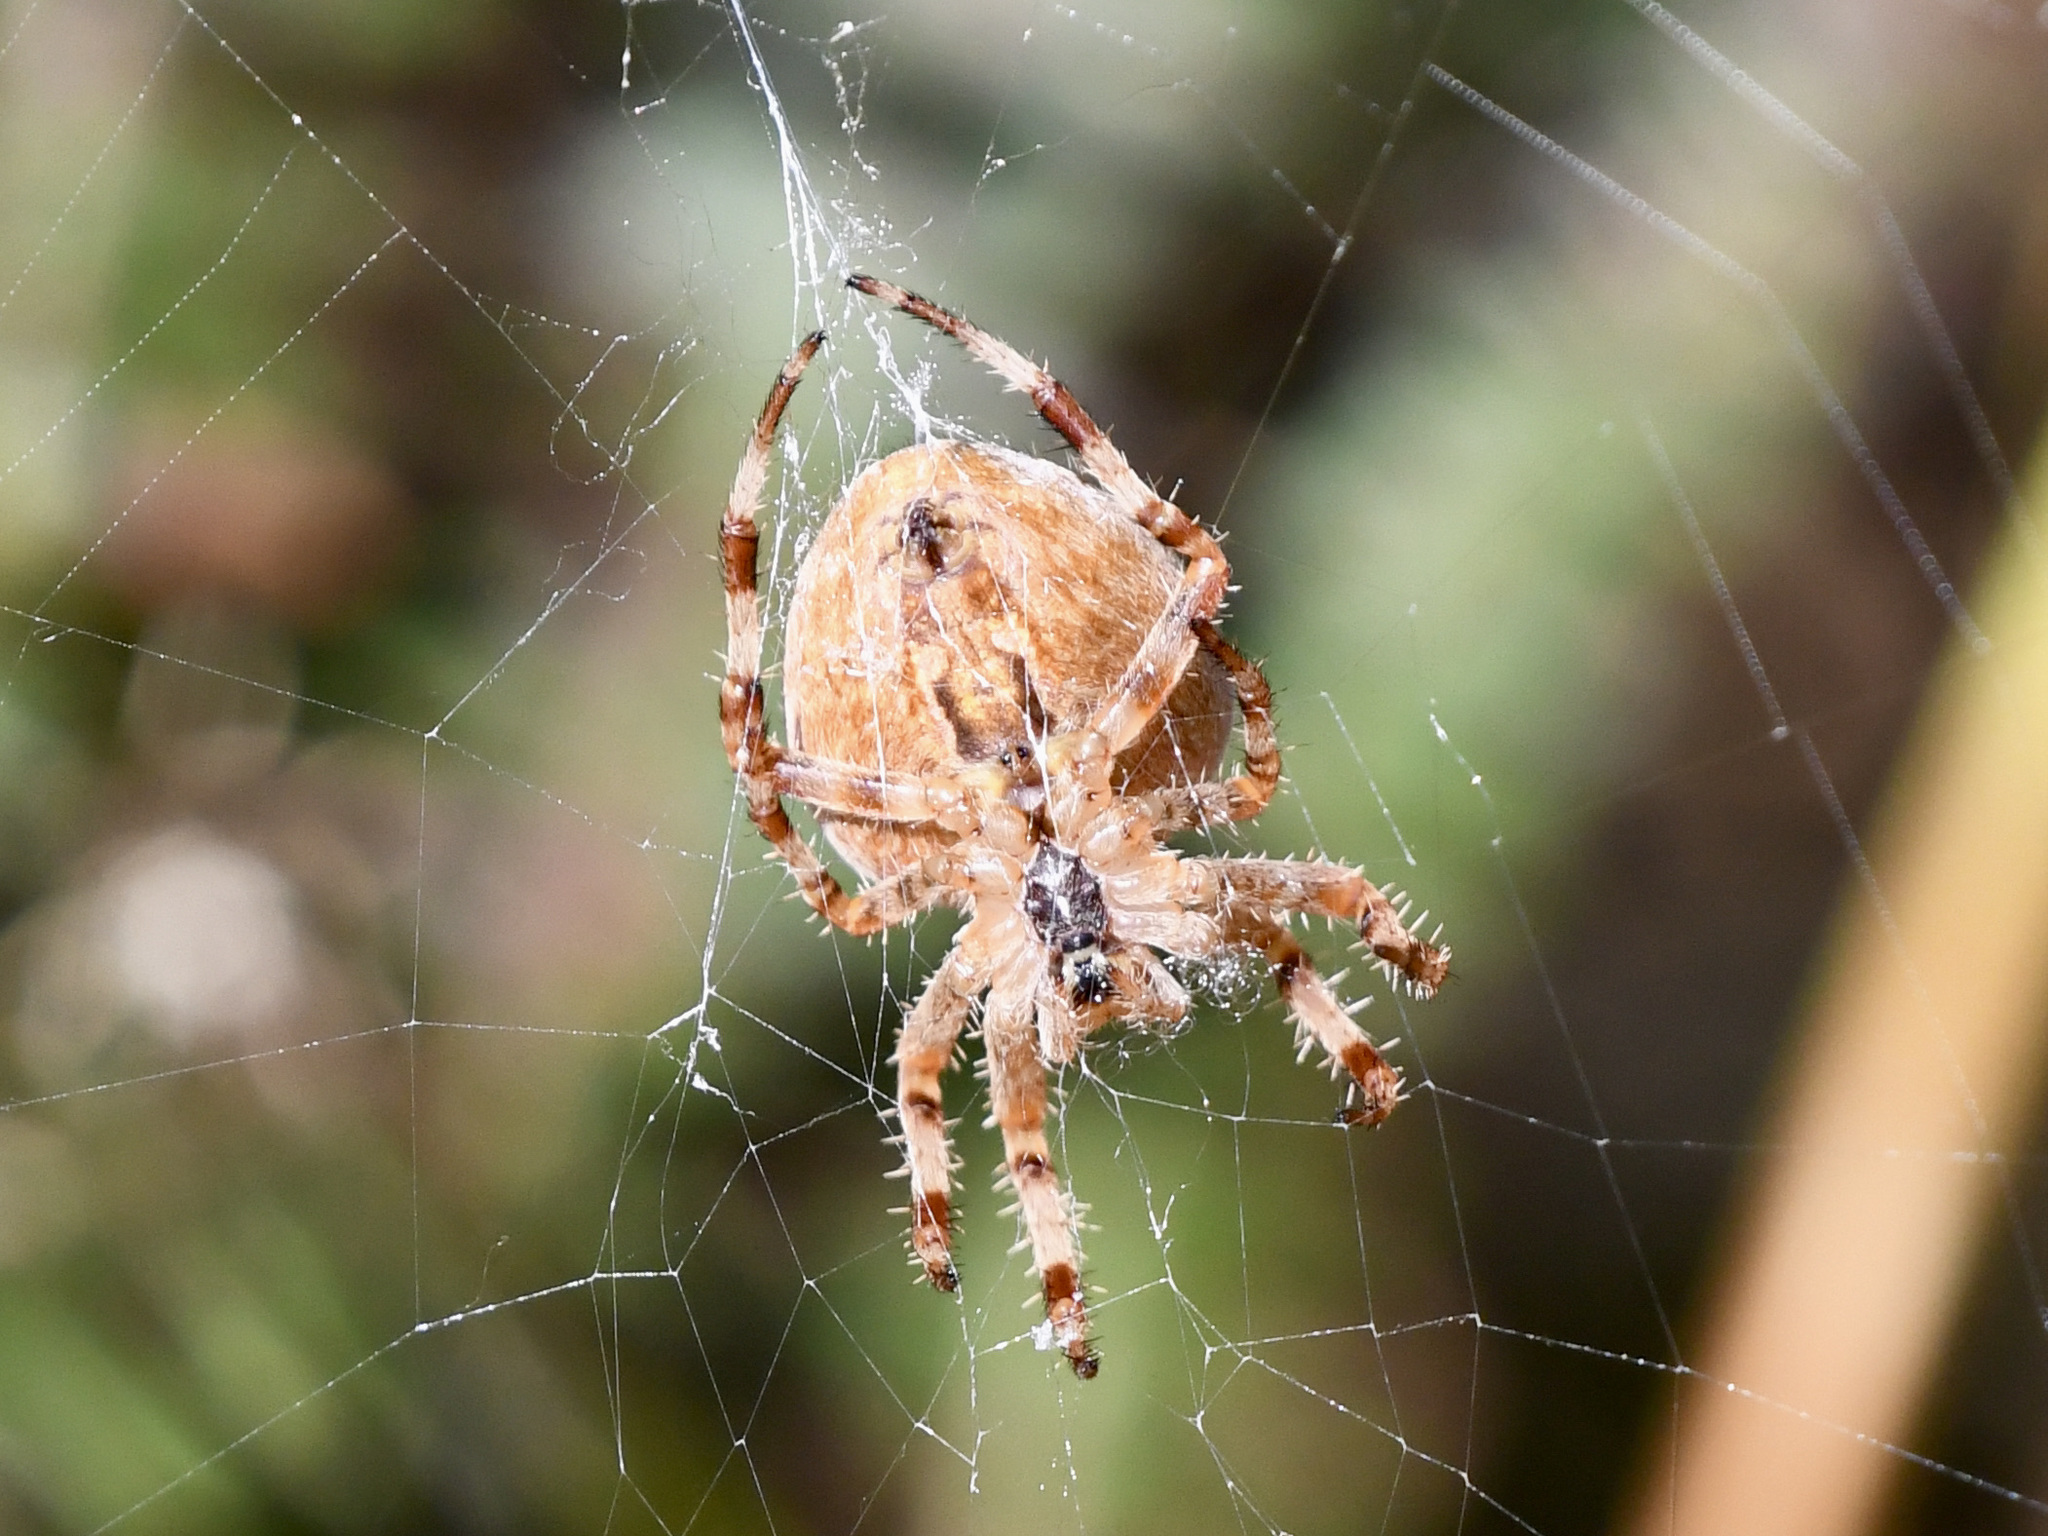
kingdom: Animalia
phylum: Arthropoda
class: Arachnida
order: Araneae
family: Araneidae
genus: Araneus
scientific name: Araneus diadematus
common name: Cross orbweaver
